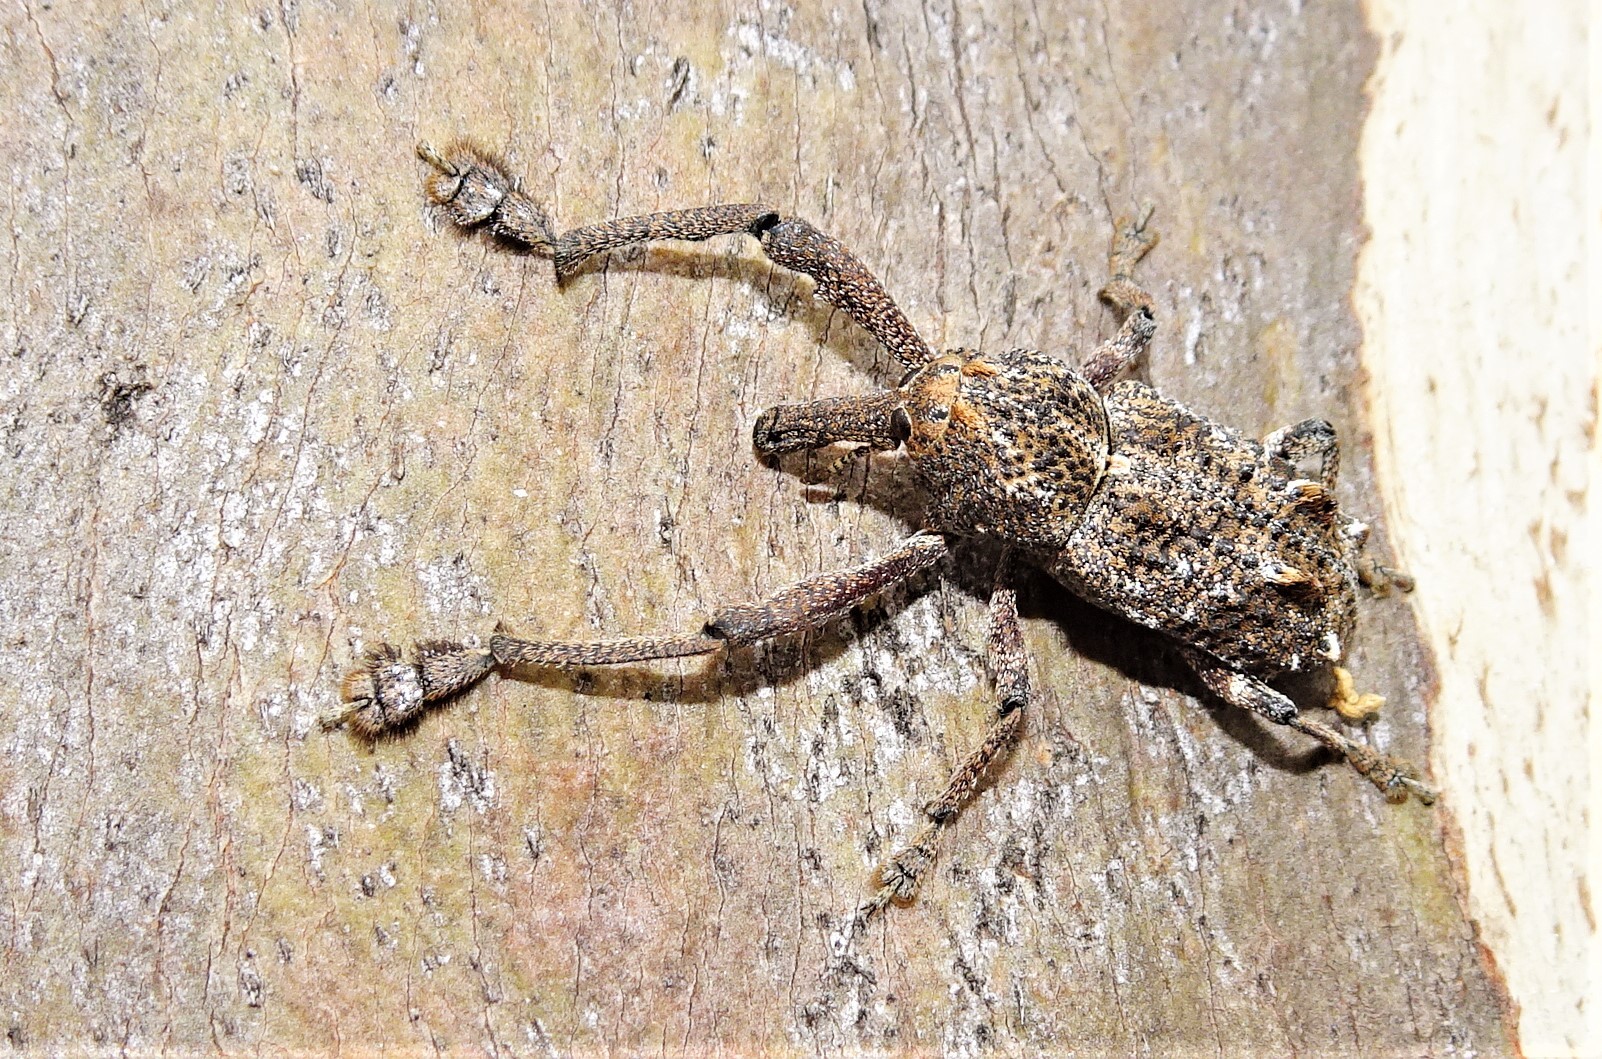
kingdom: Animalia
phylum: Arthropoda
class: Insecta
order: Coleoptera
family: Curculionidae
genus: Orthorhinus
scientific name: Orthorhinus cylindrirostris
